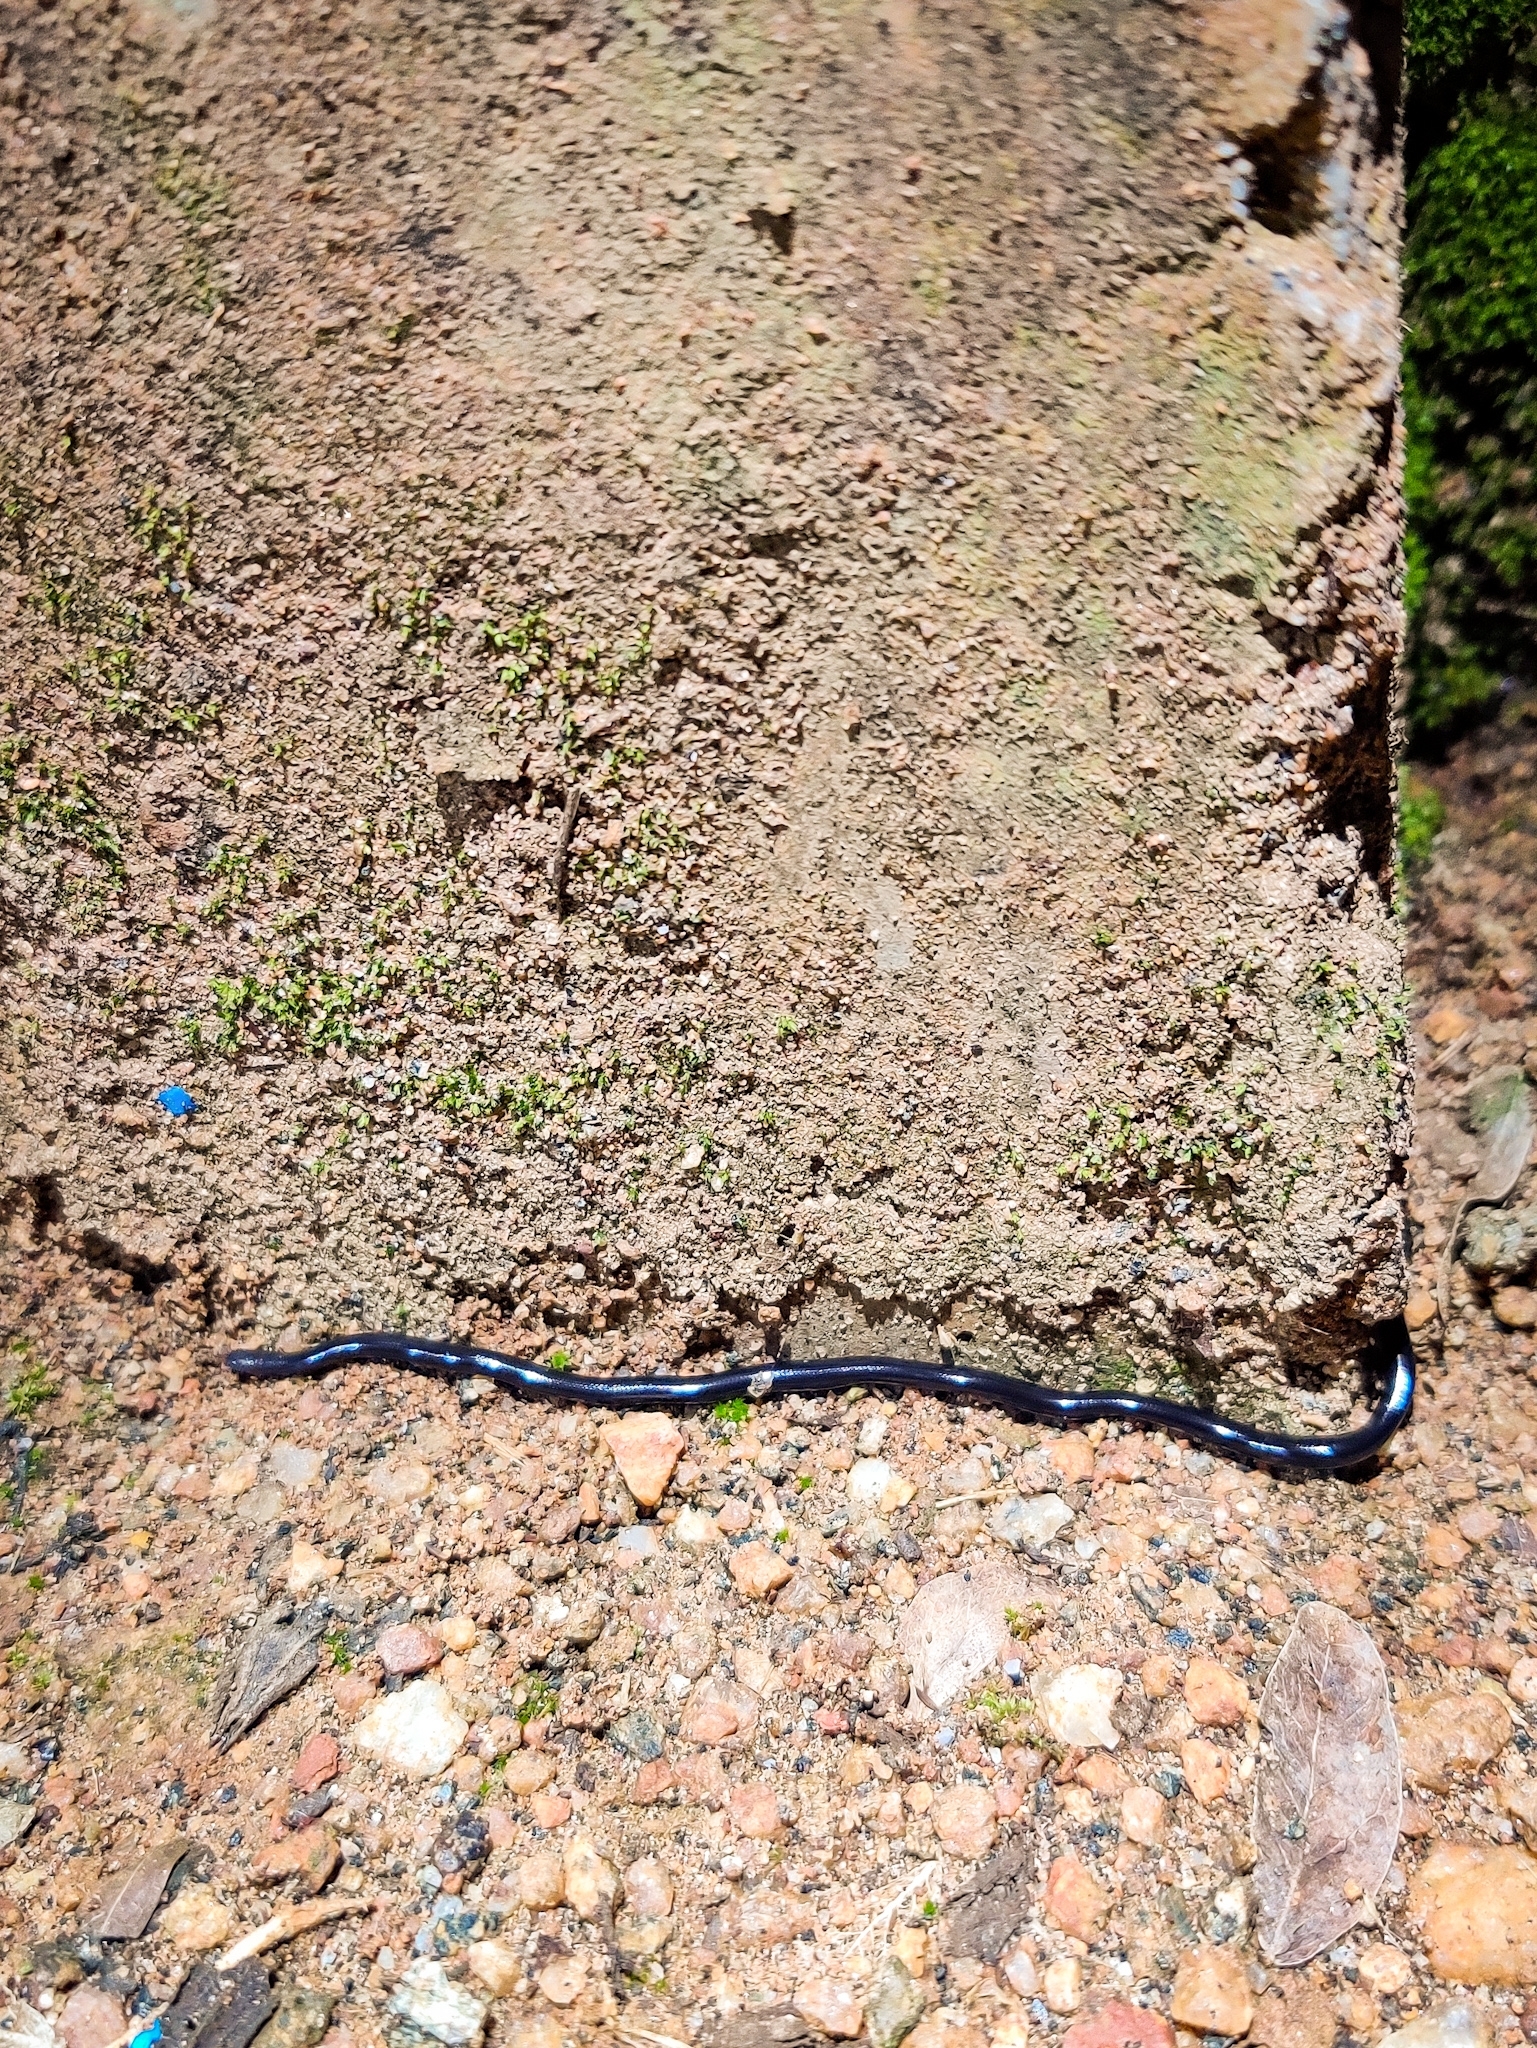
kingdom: Animalia
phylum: Chordata
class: Squamata
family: Typhlopidae
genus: Indotyphlops
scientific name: Indotyphlops braminus
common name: Brahminy blindsnake
